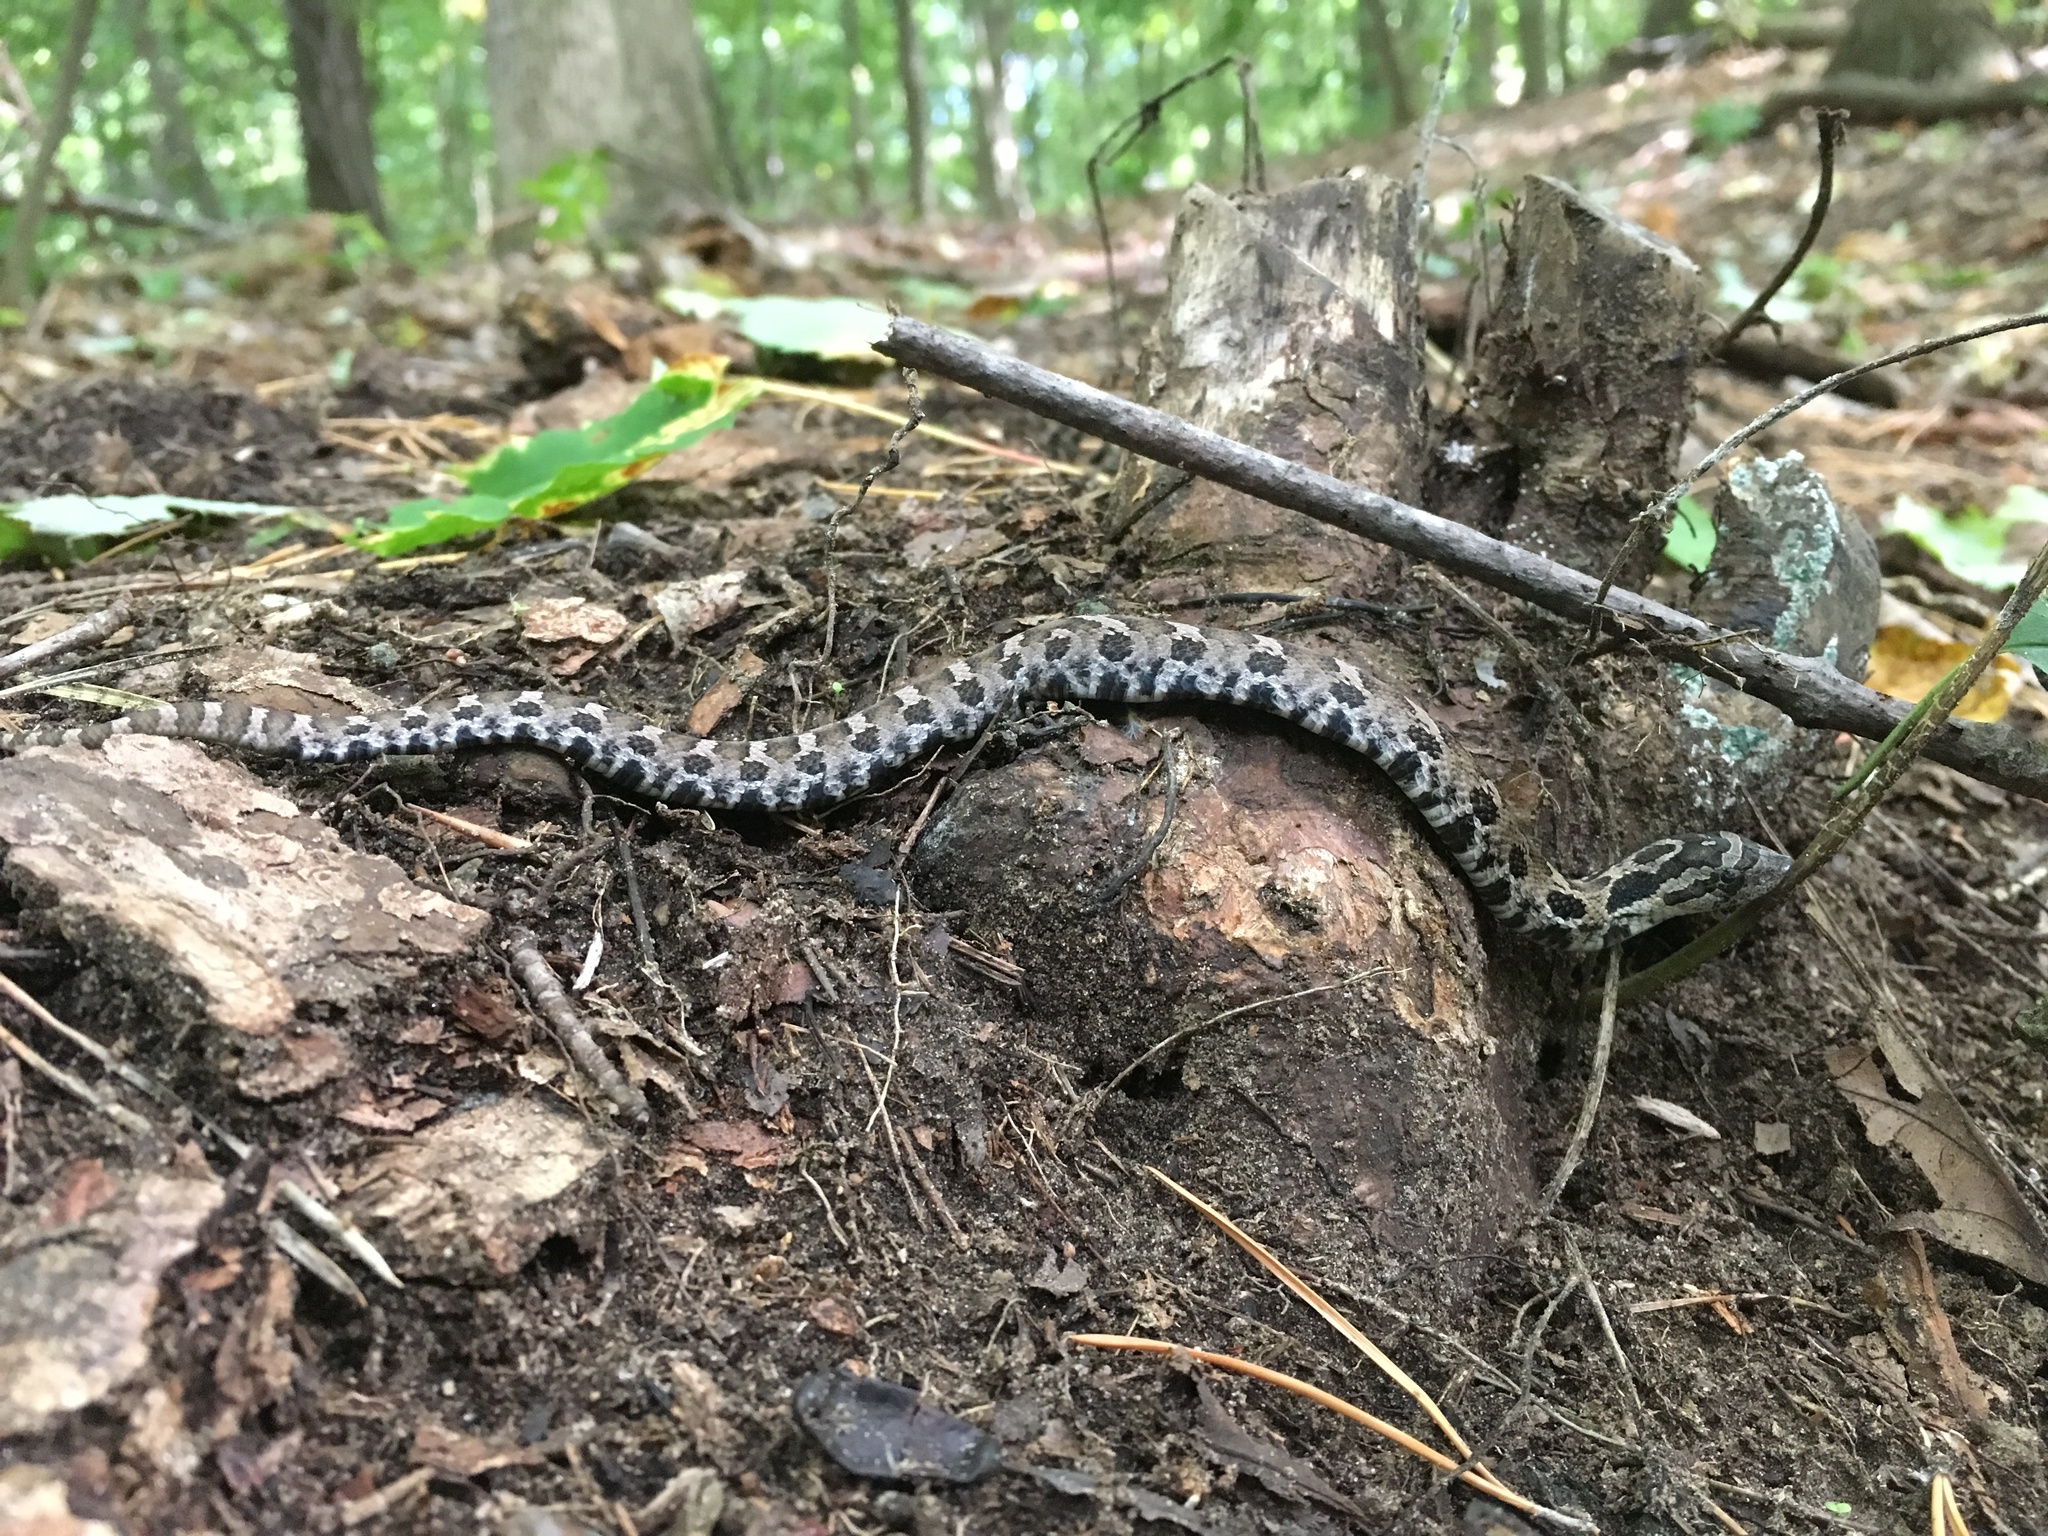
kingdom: Animalia
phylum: Chordata
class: Squamata
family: Colubridae
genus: Heterodon
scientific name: Heterodon platirhinos
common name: Eastern hognose snake
